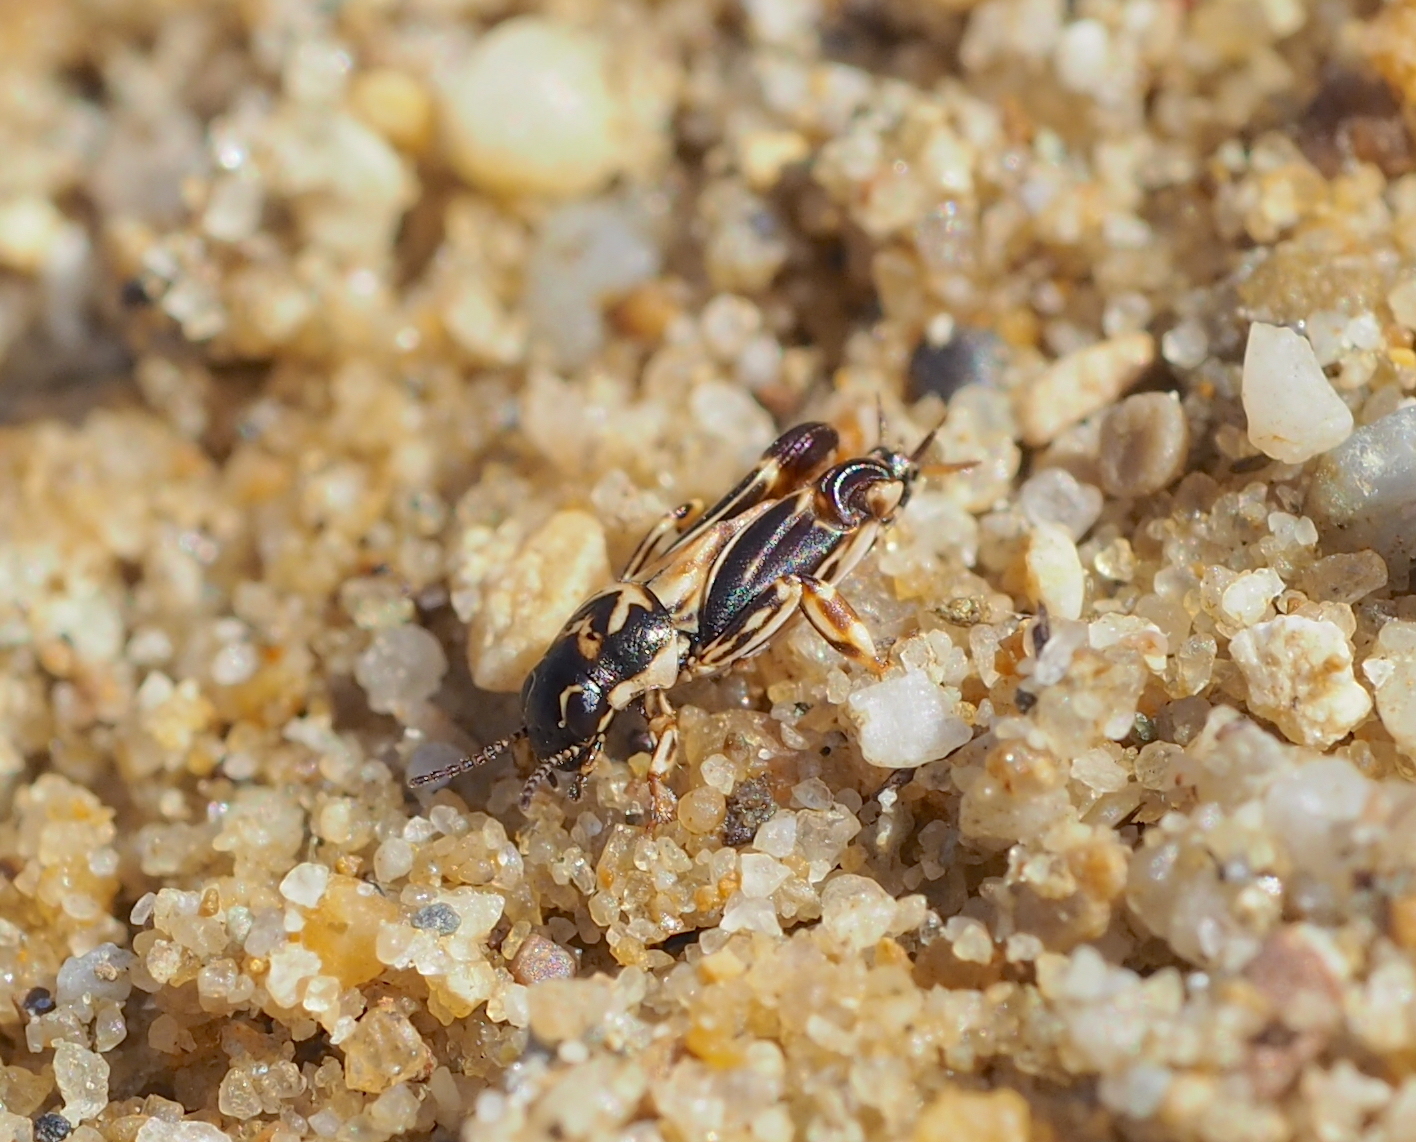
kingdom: Animalia
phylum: Arthropoda
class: Insecta
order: Orthoptera
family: Tridactylidae
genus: Xya
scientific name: Xya variegata
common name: Le tridactyle panaché
